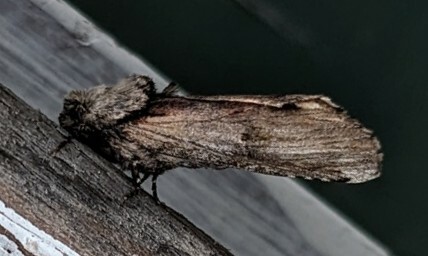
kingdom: Animalia
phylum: Arthropoda
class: Insecta
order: Lepidoptera
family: Notodontidae
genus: Schizura
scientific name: Schizura
